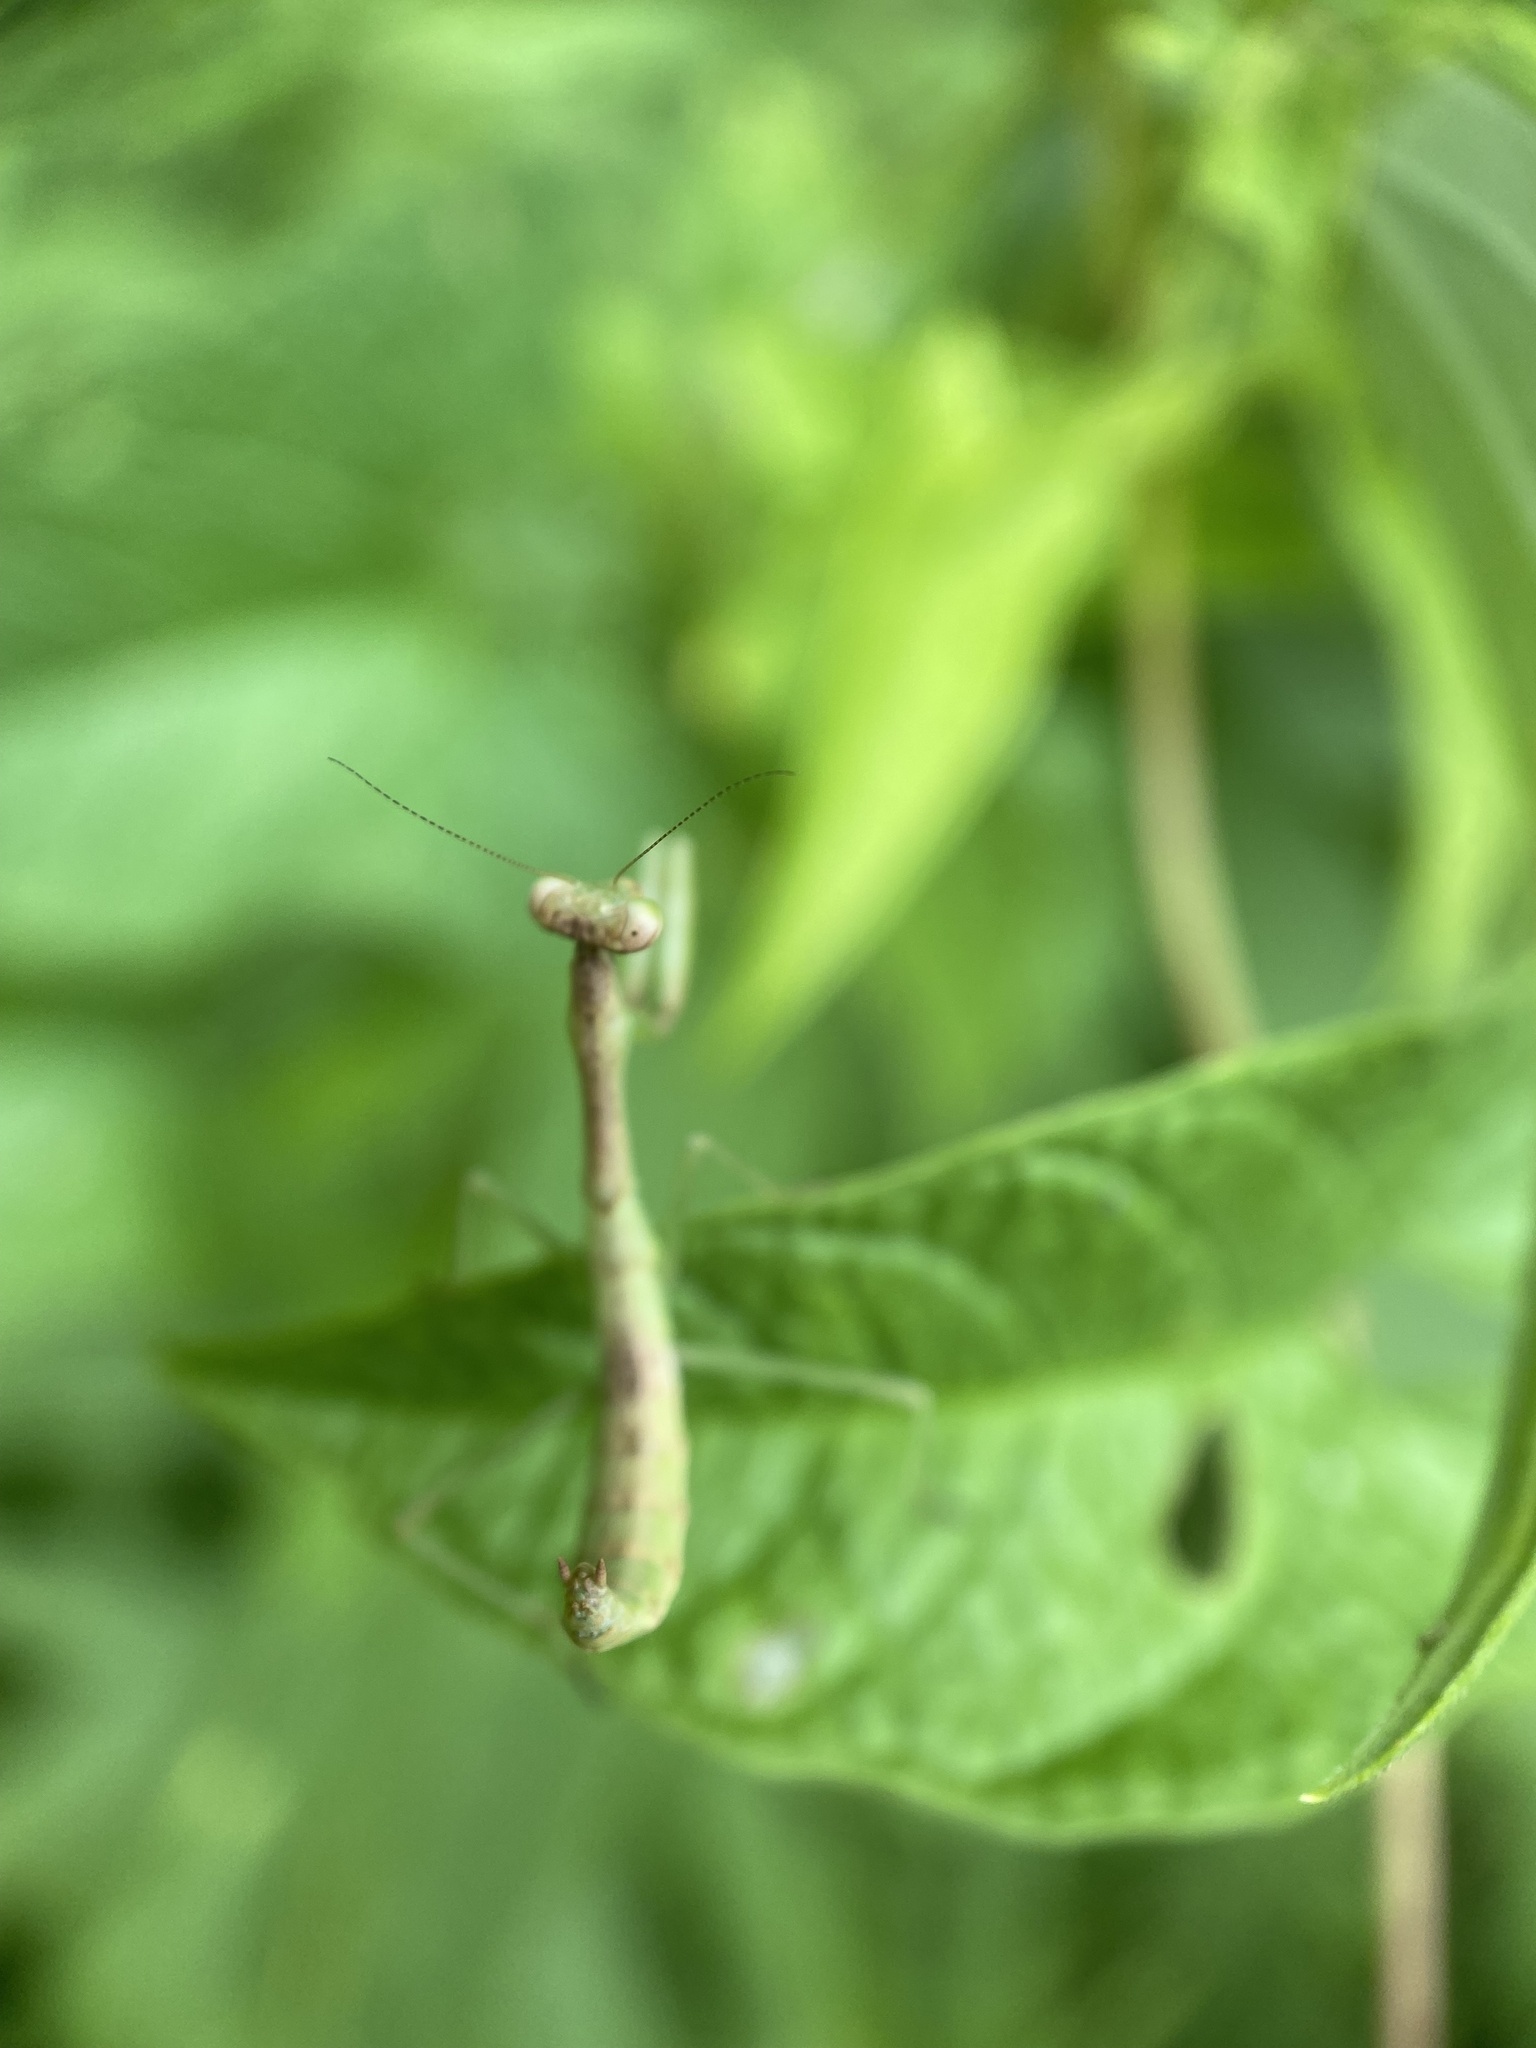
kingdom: Animalia
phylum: Arthropoda
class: Insecta
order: Mantodea
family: Mantidae
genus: Stagmomantis
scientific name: Stagmomantis carolina
